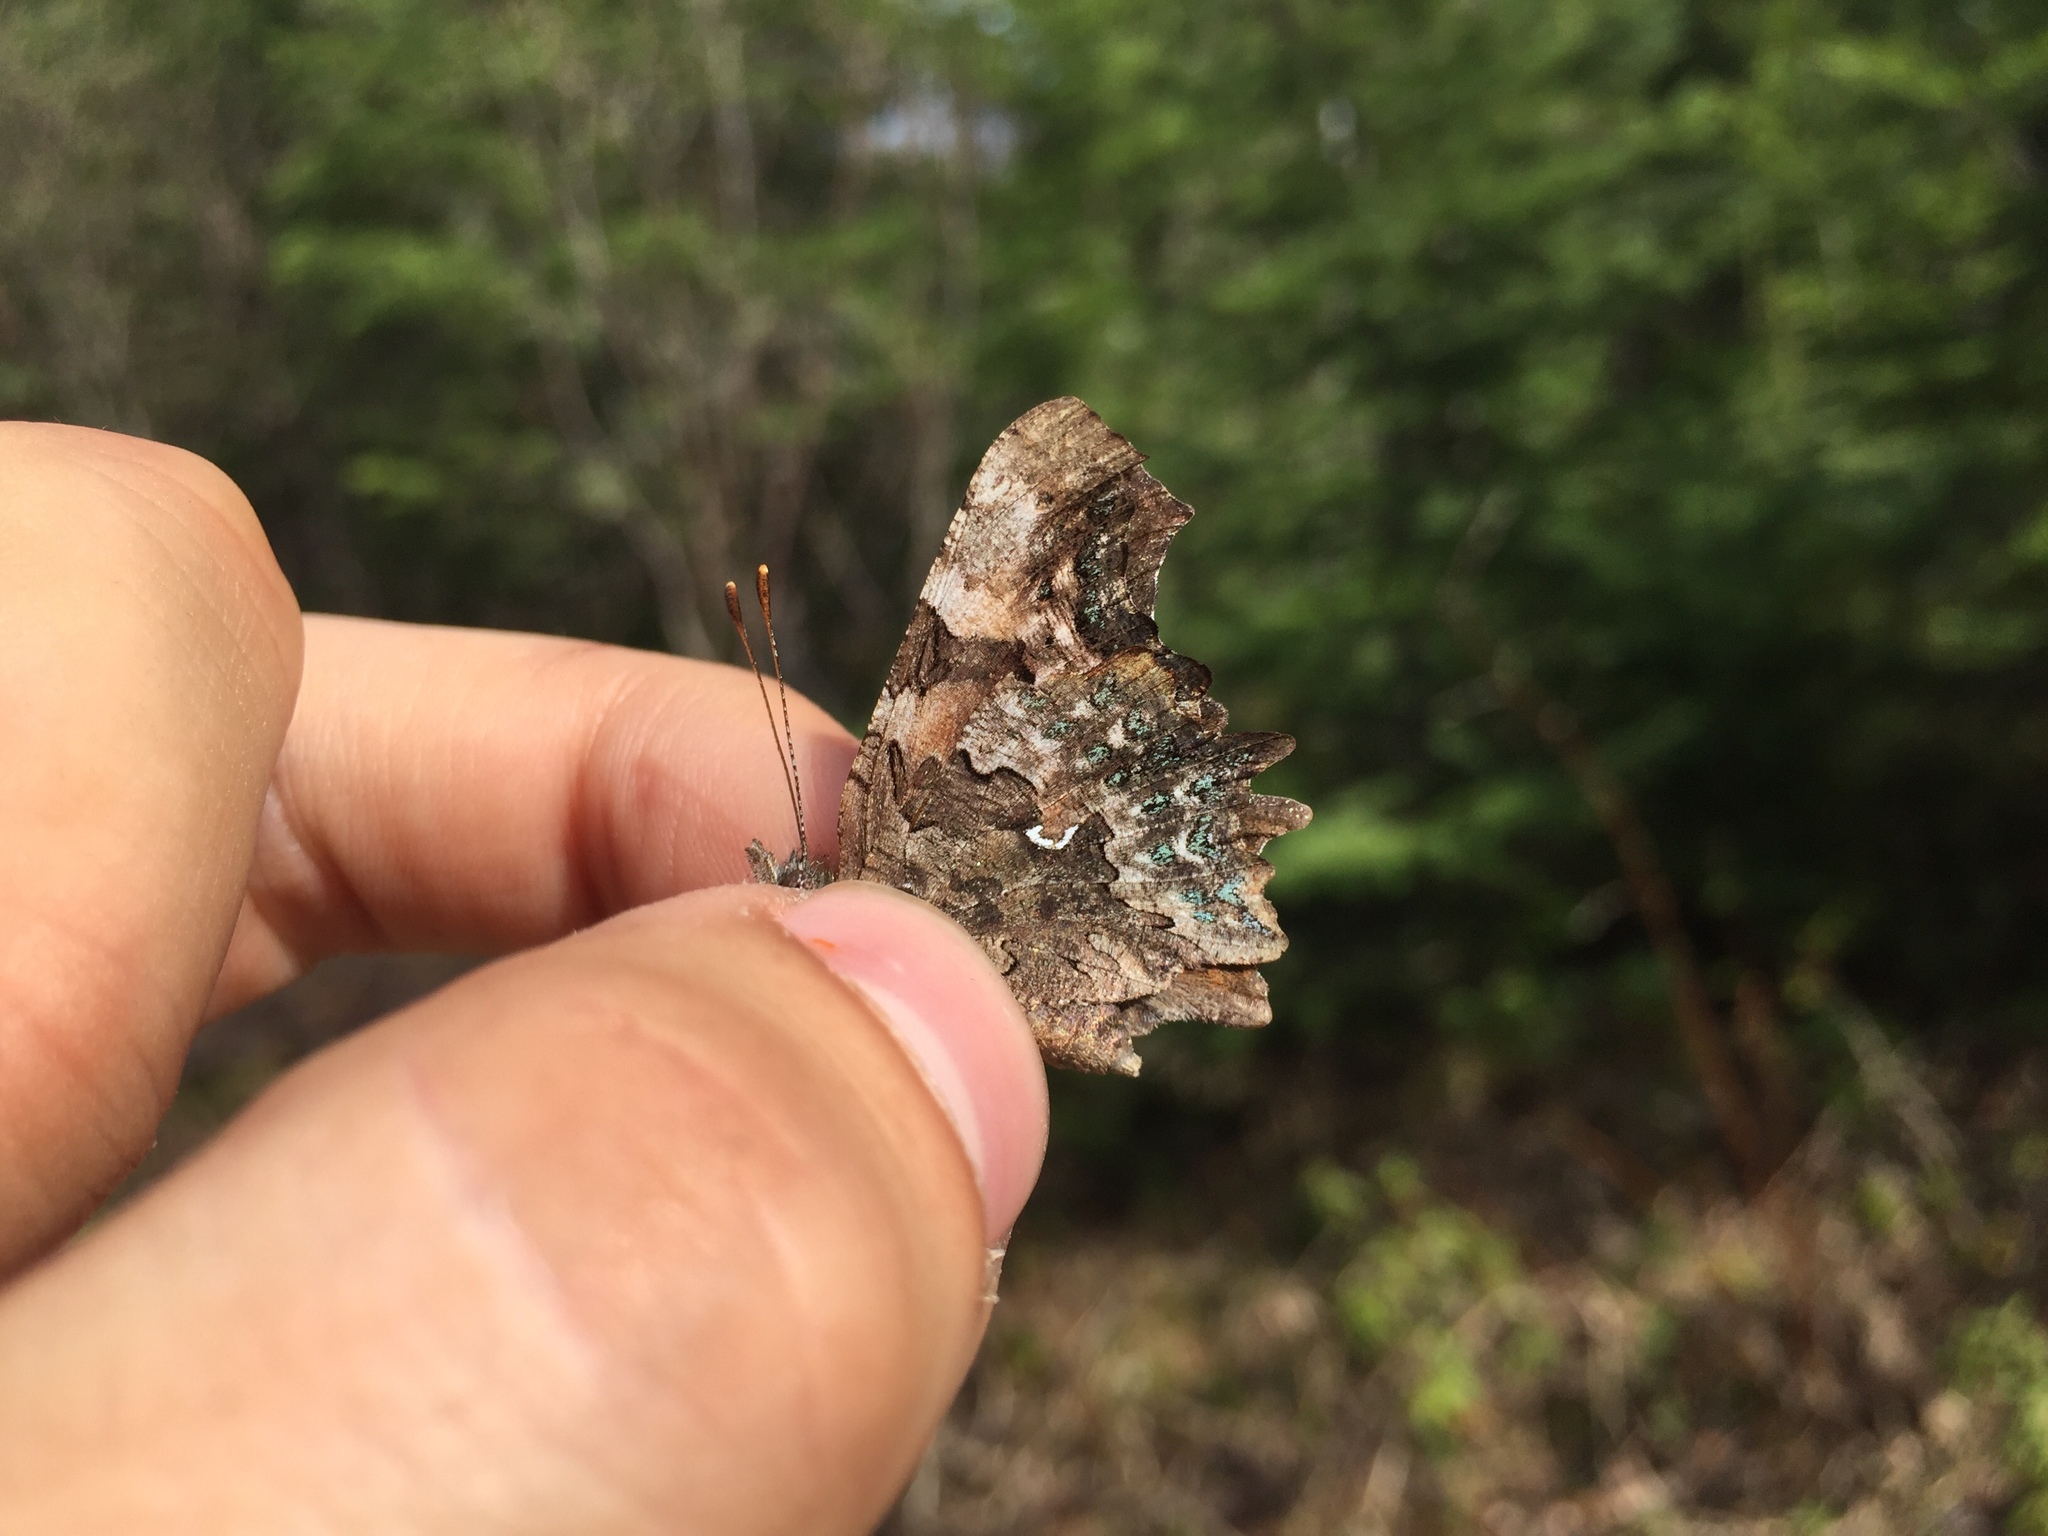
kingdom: Animalia
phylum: Arthropoda
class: Insecta
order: Lepidoptera
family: Nymphalidae
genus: Polygonia
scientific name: Polygonia faunus
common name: Green comma
